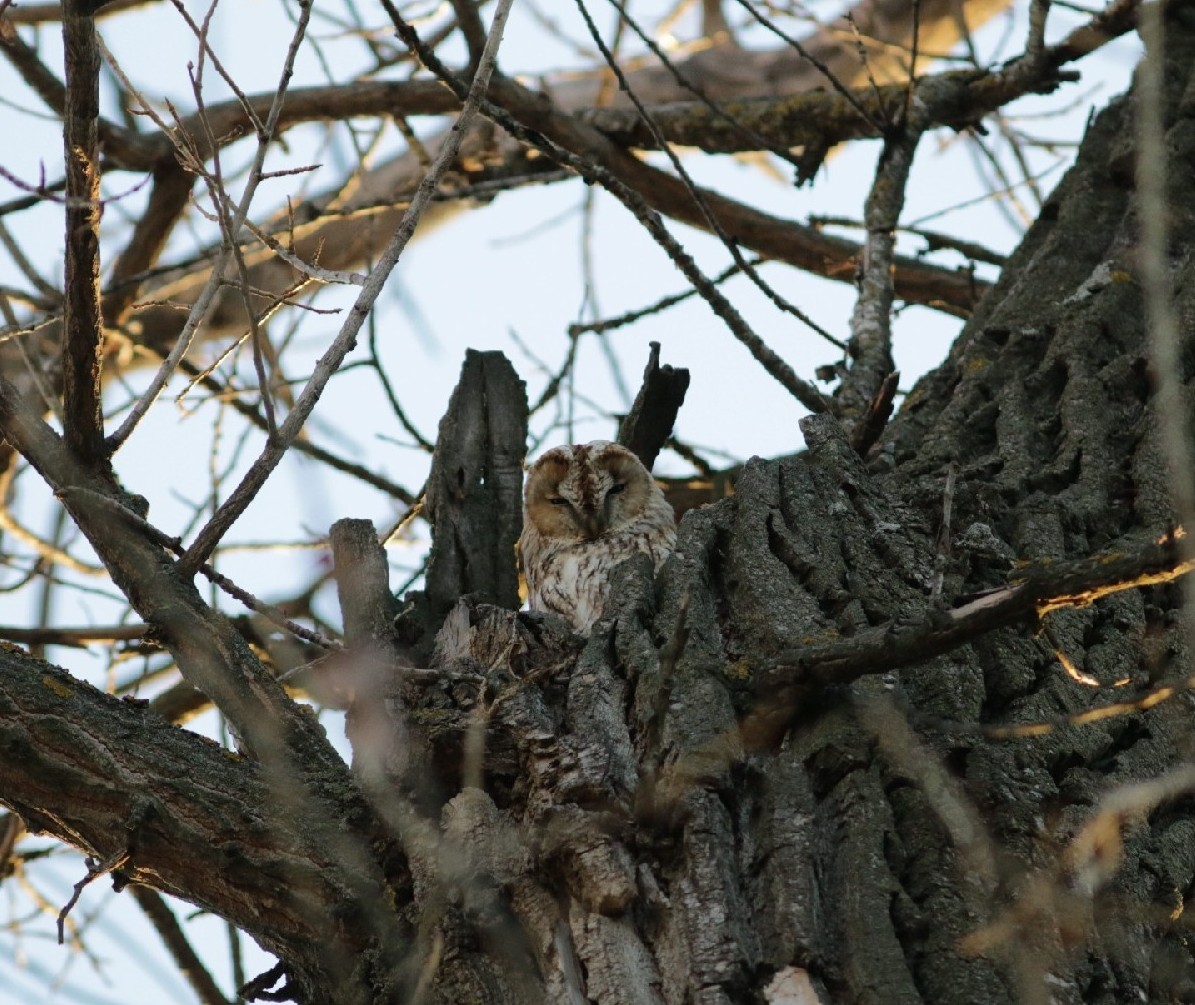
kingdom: Animalia
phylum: Chordata
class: Aves
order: Strigiformes
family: Strigidae
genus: Strix
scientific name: Strix aluco
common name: Tawny owl
